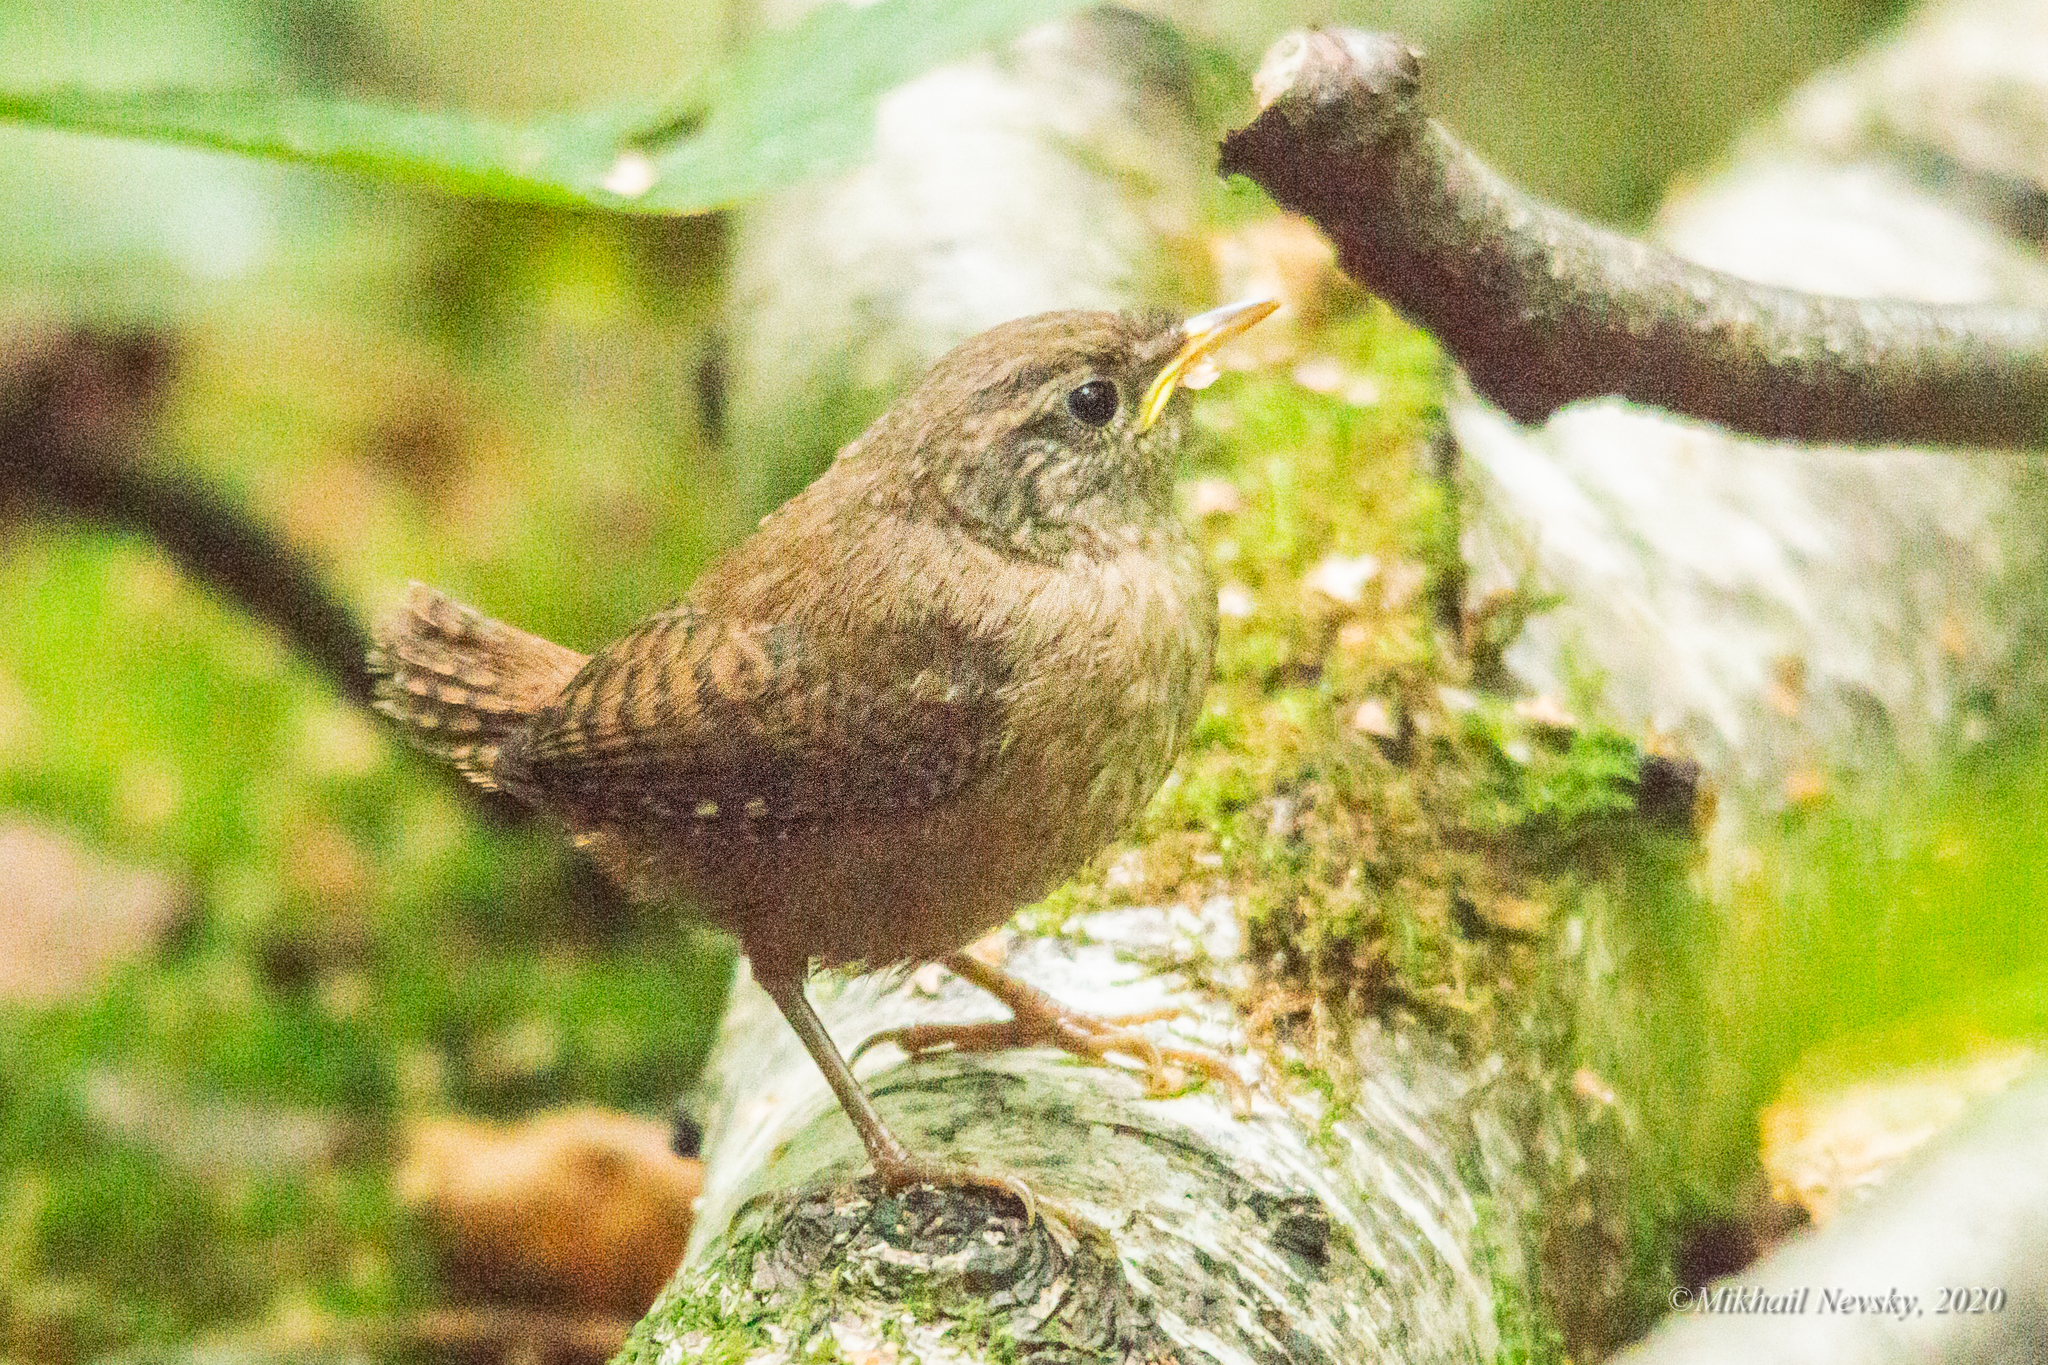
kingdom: Animalia
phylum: Chordata
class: Aves
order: Passeriformes
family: Troglodytidae
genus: Troglodytes
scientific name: Troglodytes troglodytes
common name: Eurasian wren
